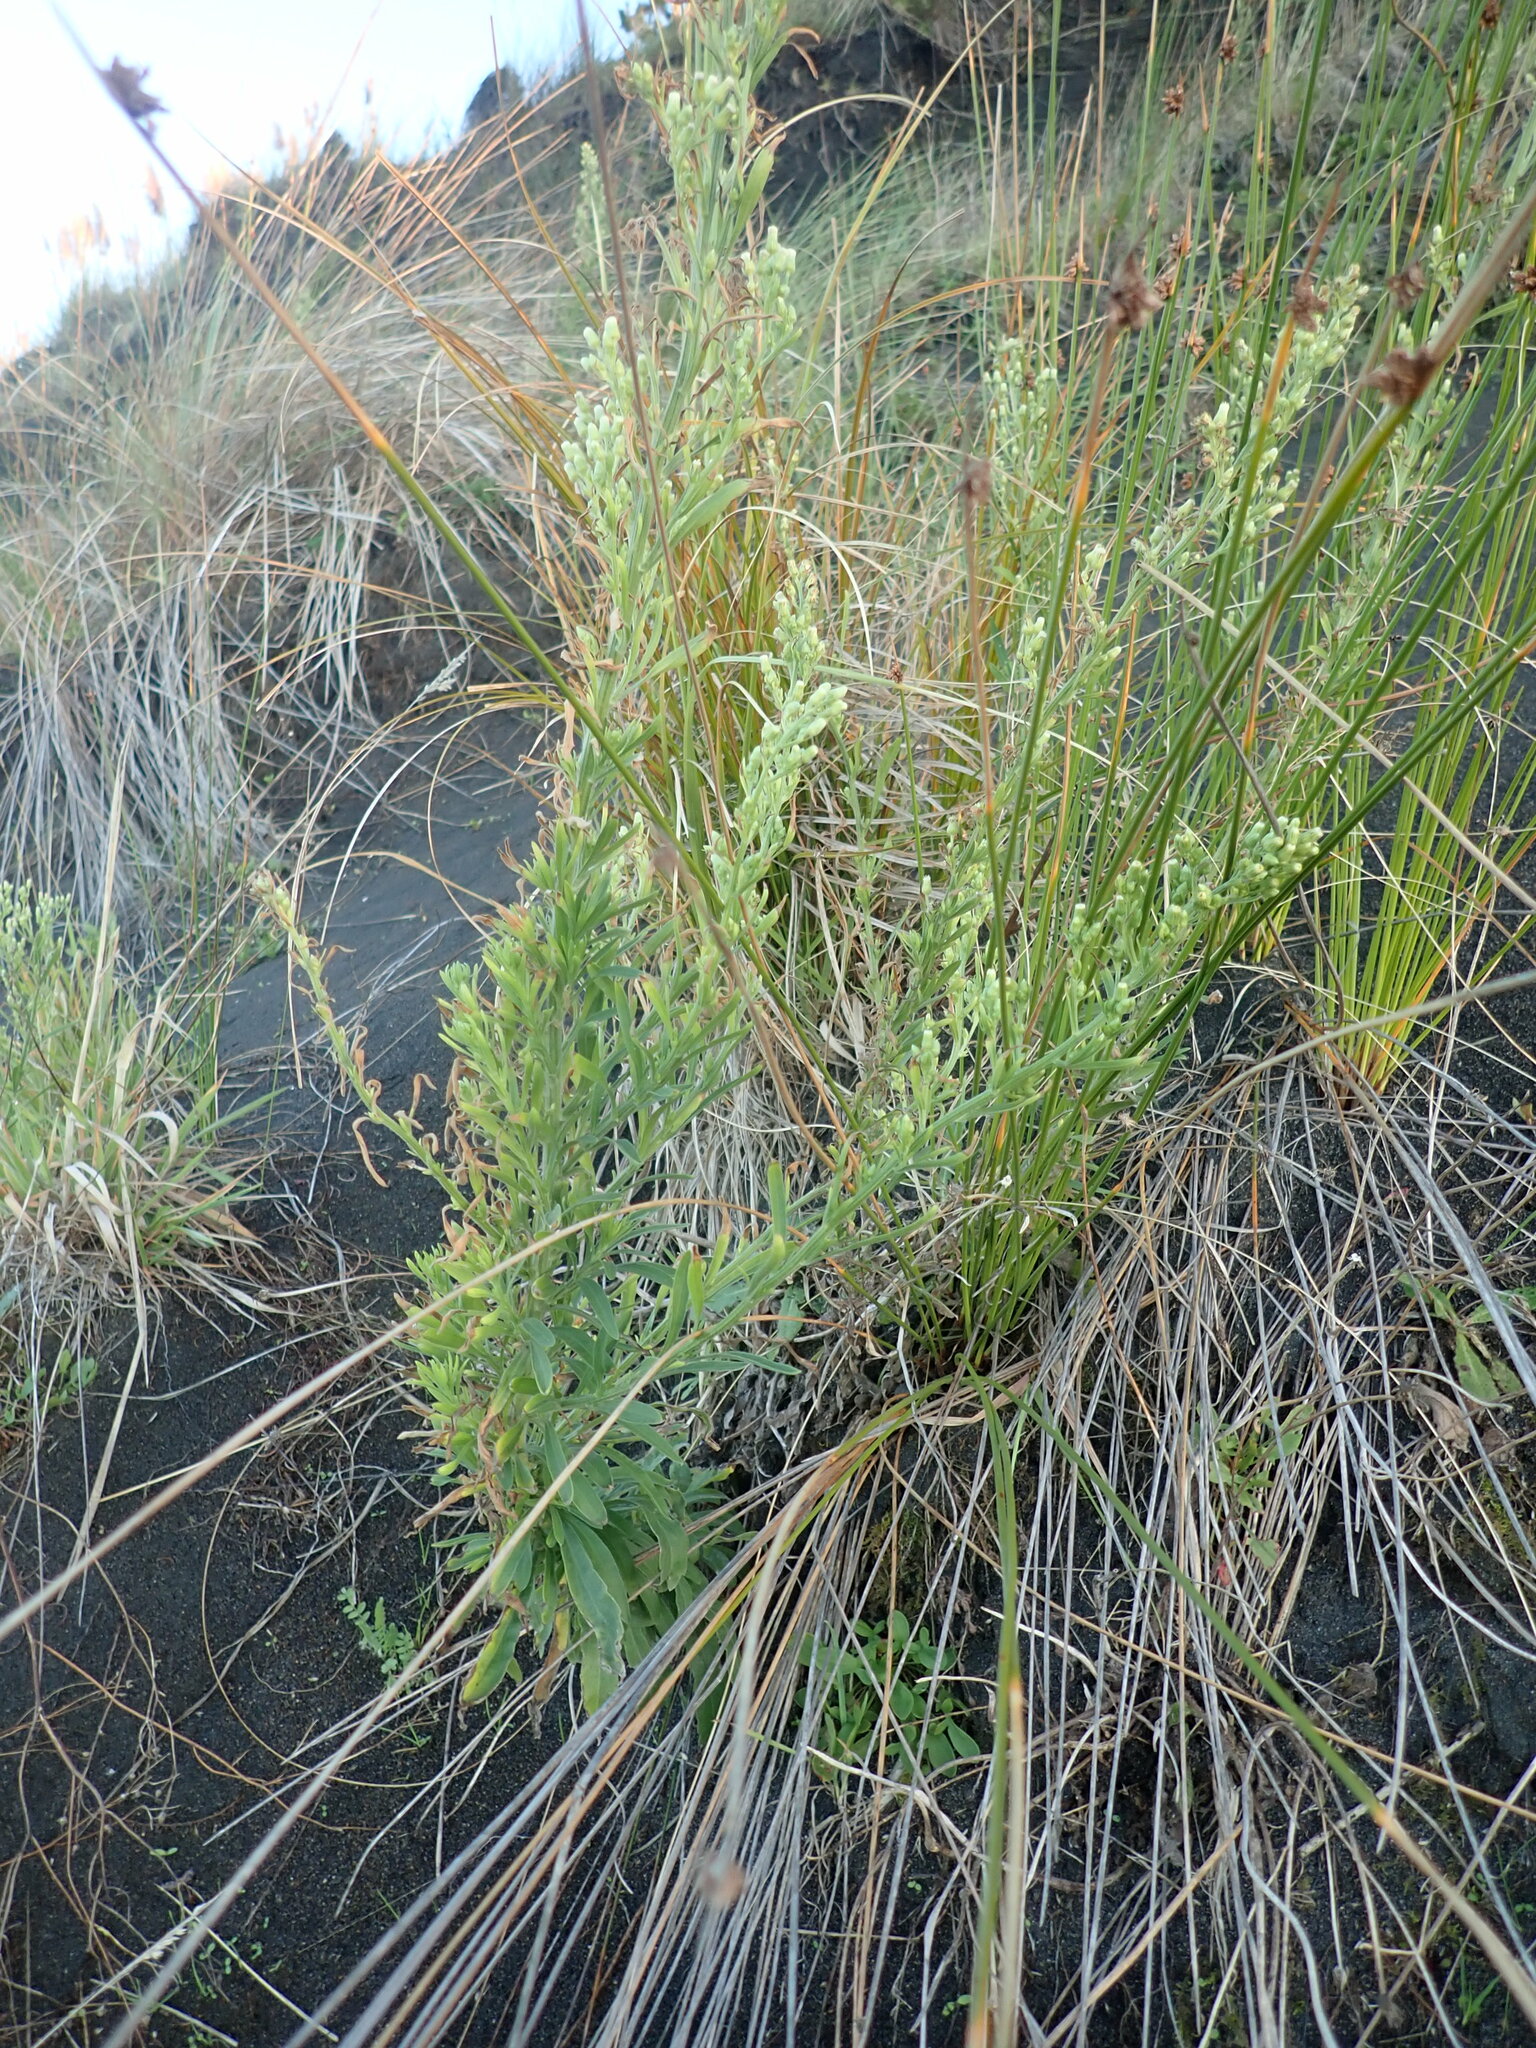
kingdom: Plantae
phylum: Tracheophyta
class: Magnoliopsida
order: Asterales
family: Asteraceae
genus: Erigeron
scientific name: Erigeron sumatrensis
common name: Daisy
